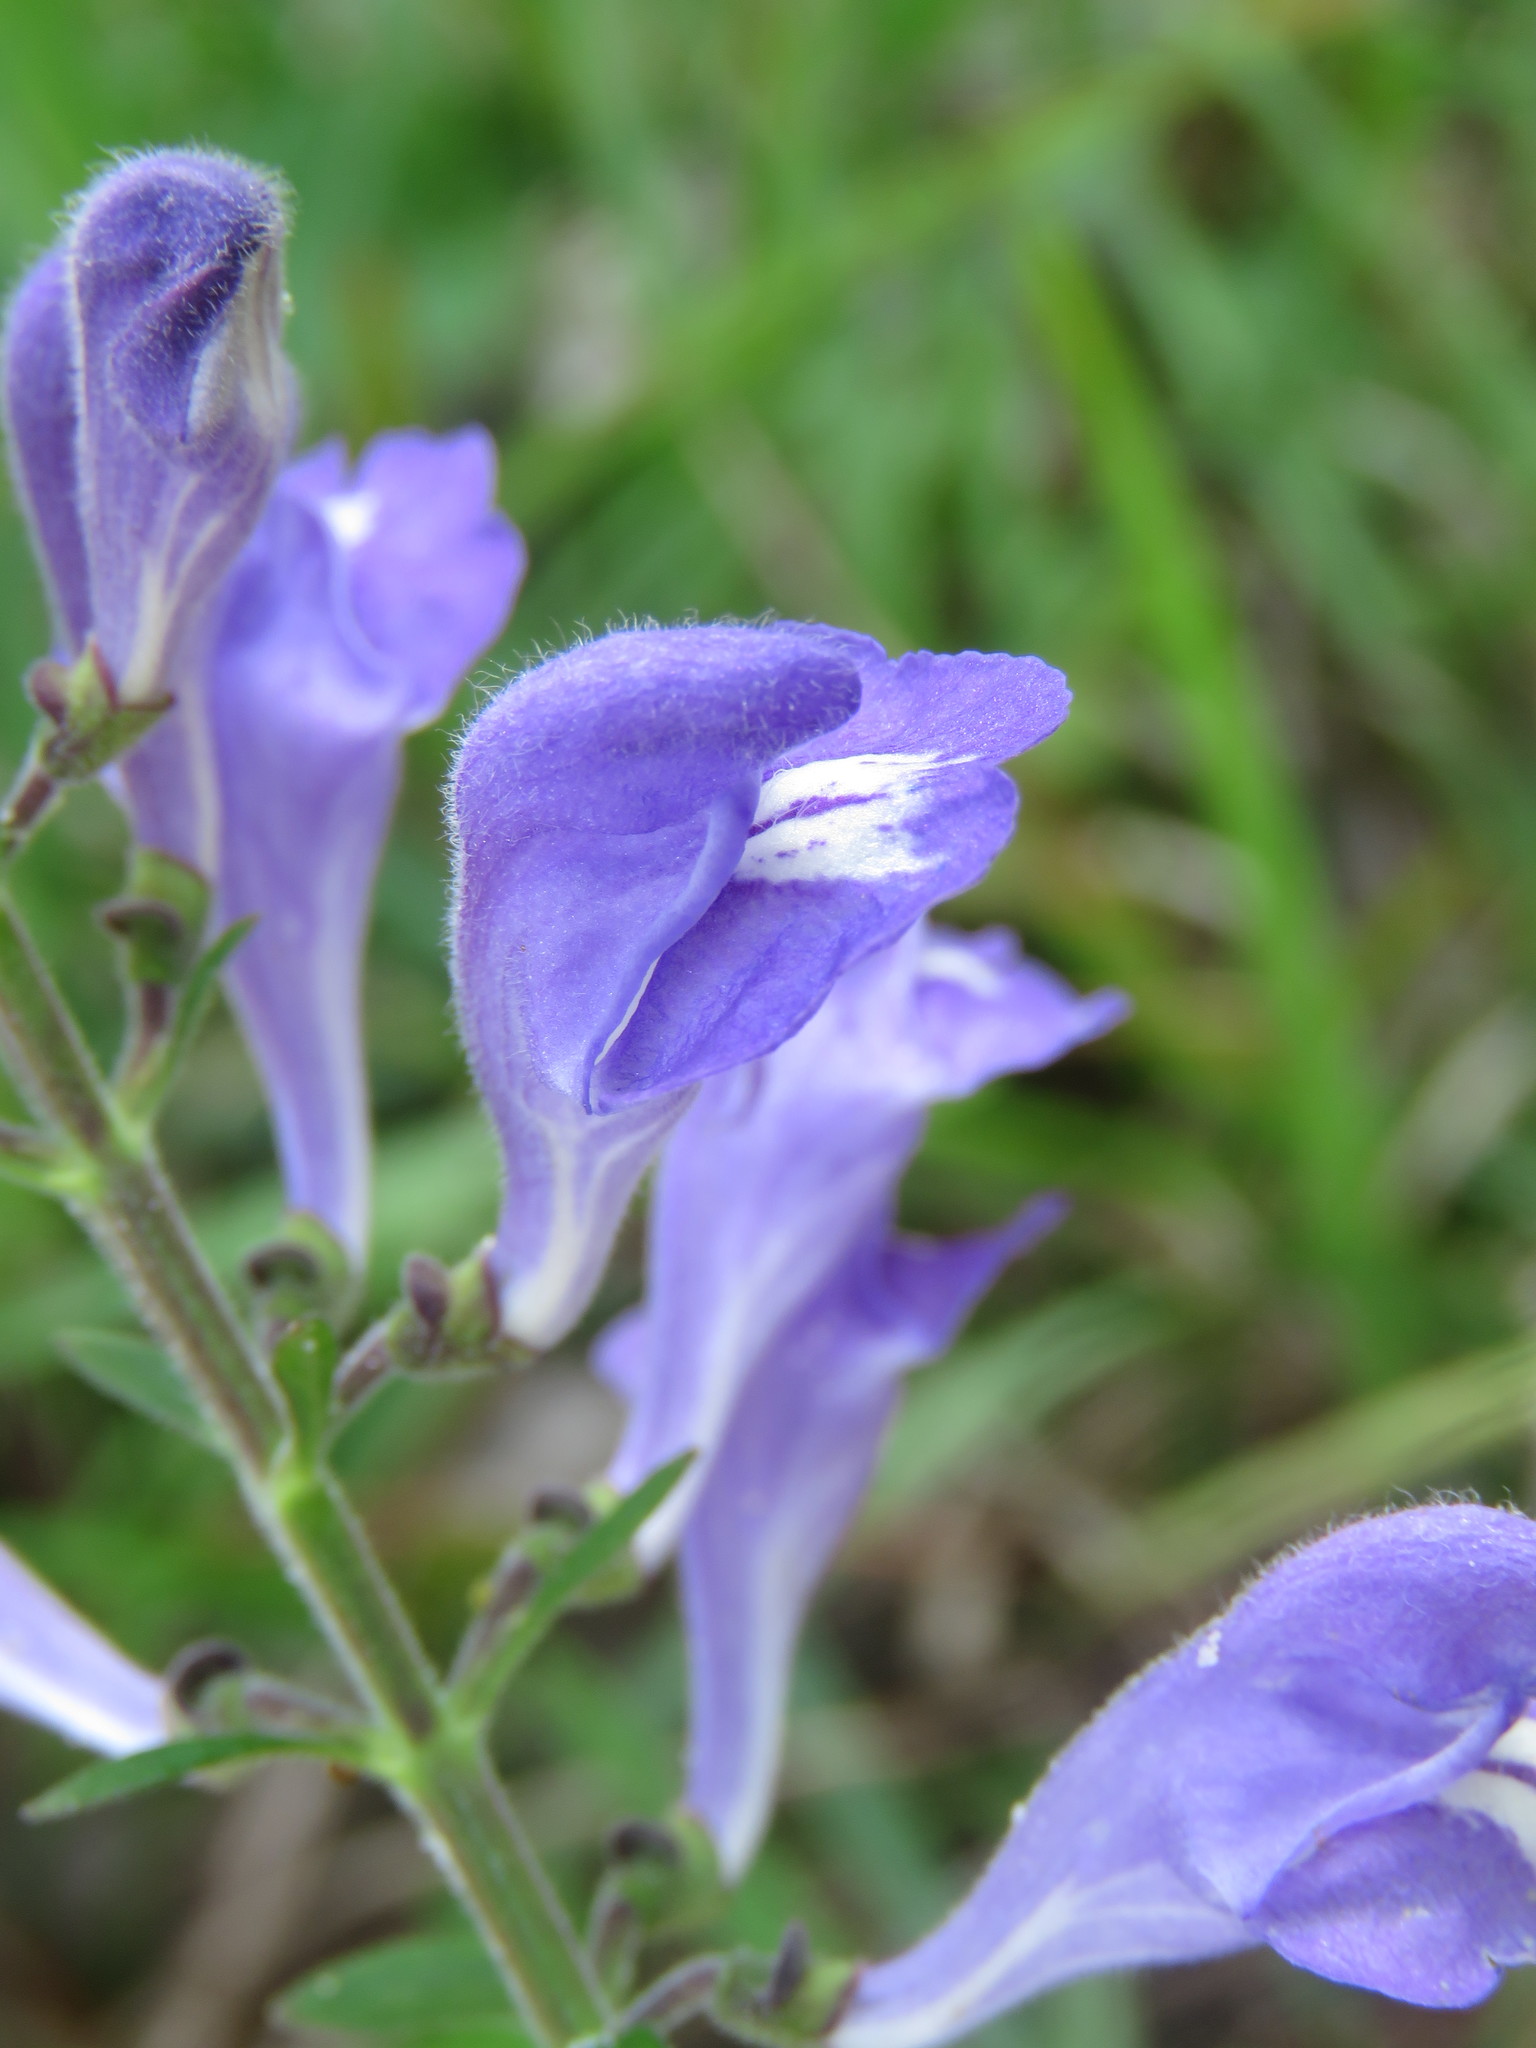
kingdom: Plantae
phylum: Tracheophyta
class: Magnoliopsida
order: Lamiales
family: Lamiaceae
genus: Scutellaria
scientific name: Scutellaria integrifolia
